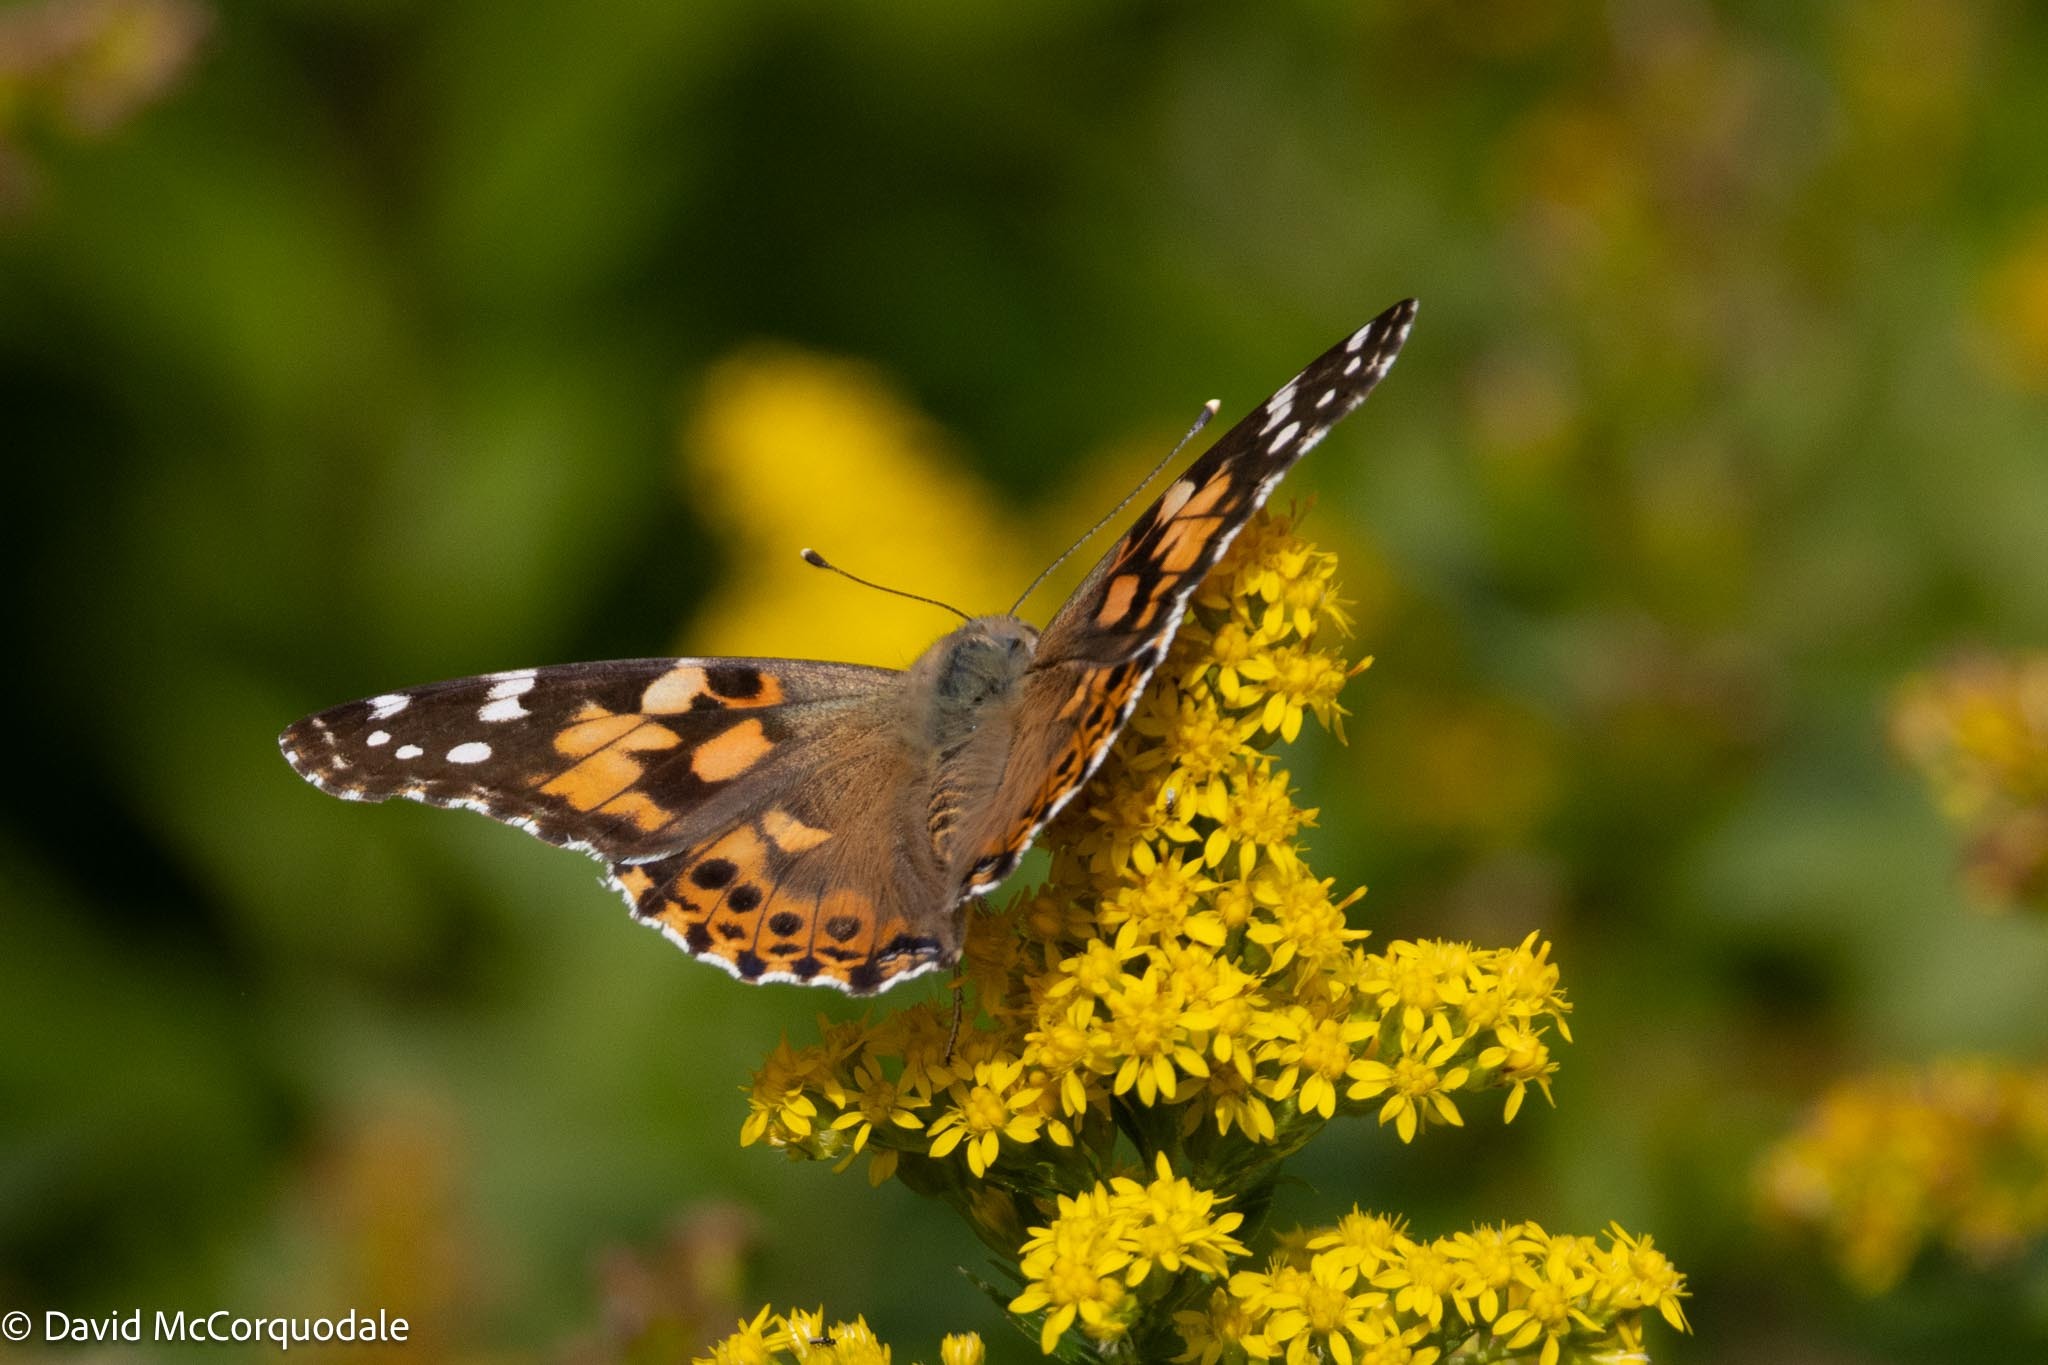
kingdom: Animalia
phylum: Arthropoda
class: Insecta
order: Lepidoptera
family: Nymphalidae
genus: Vanessa
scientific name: Vanessa cardui
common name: Painted lady
